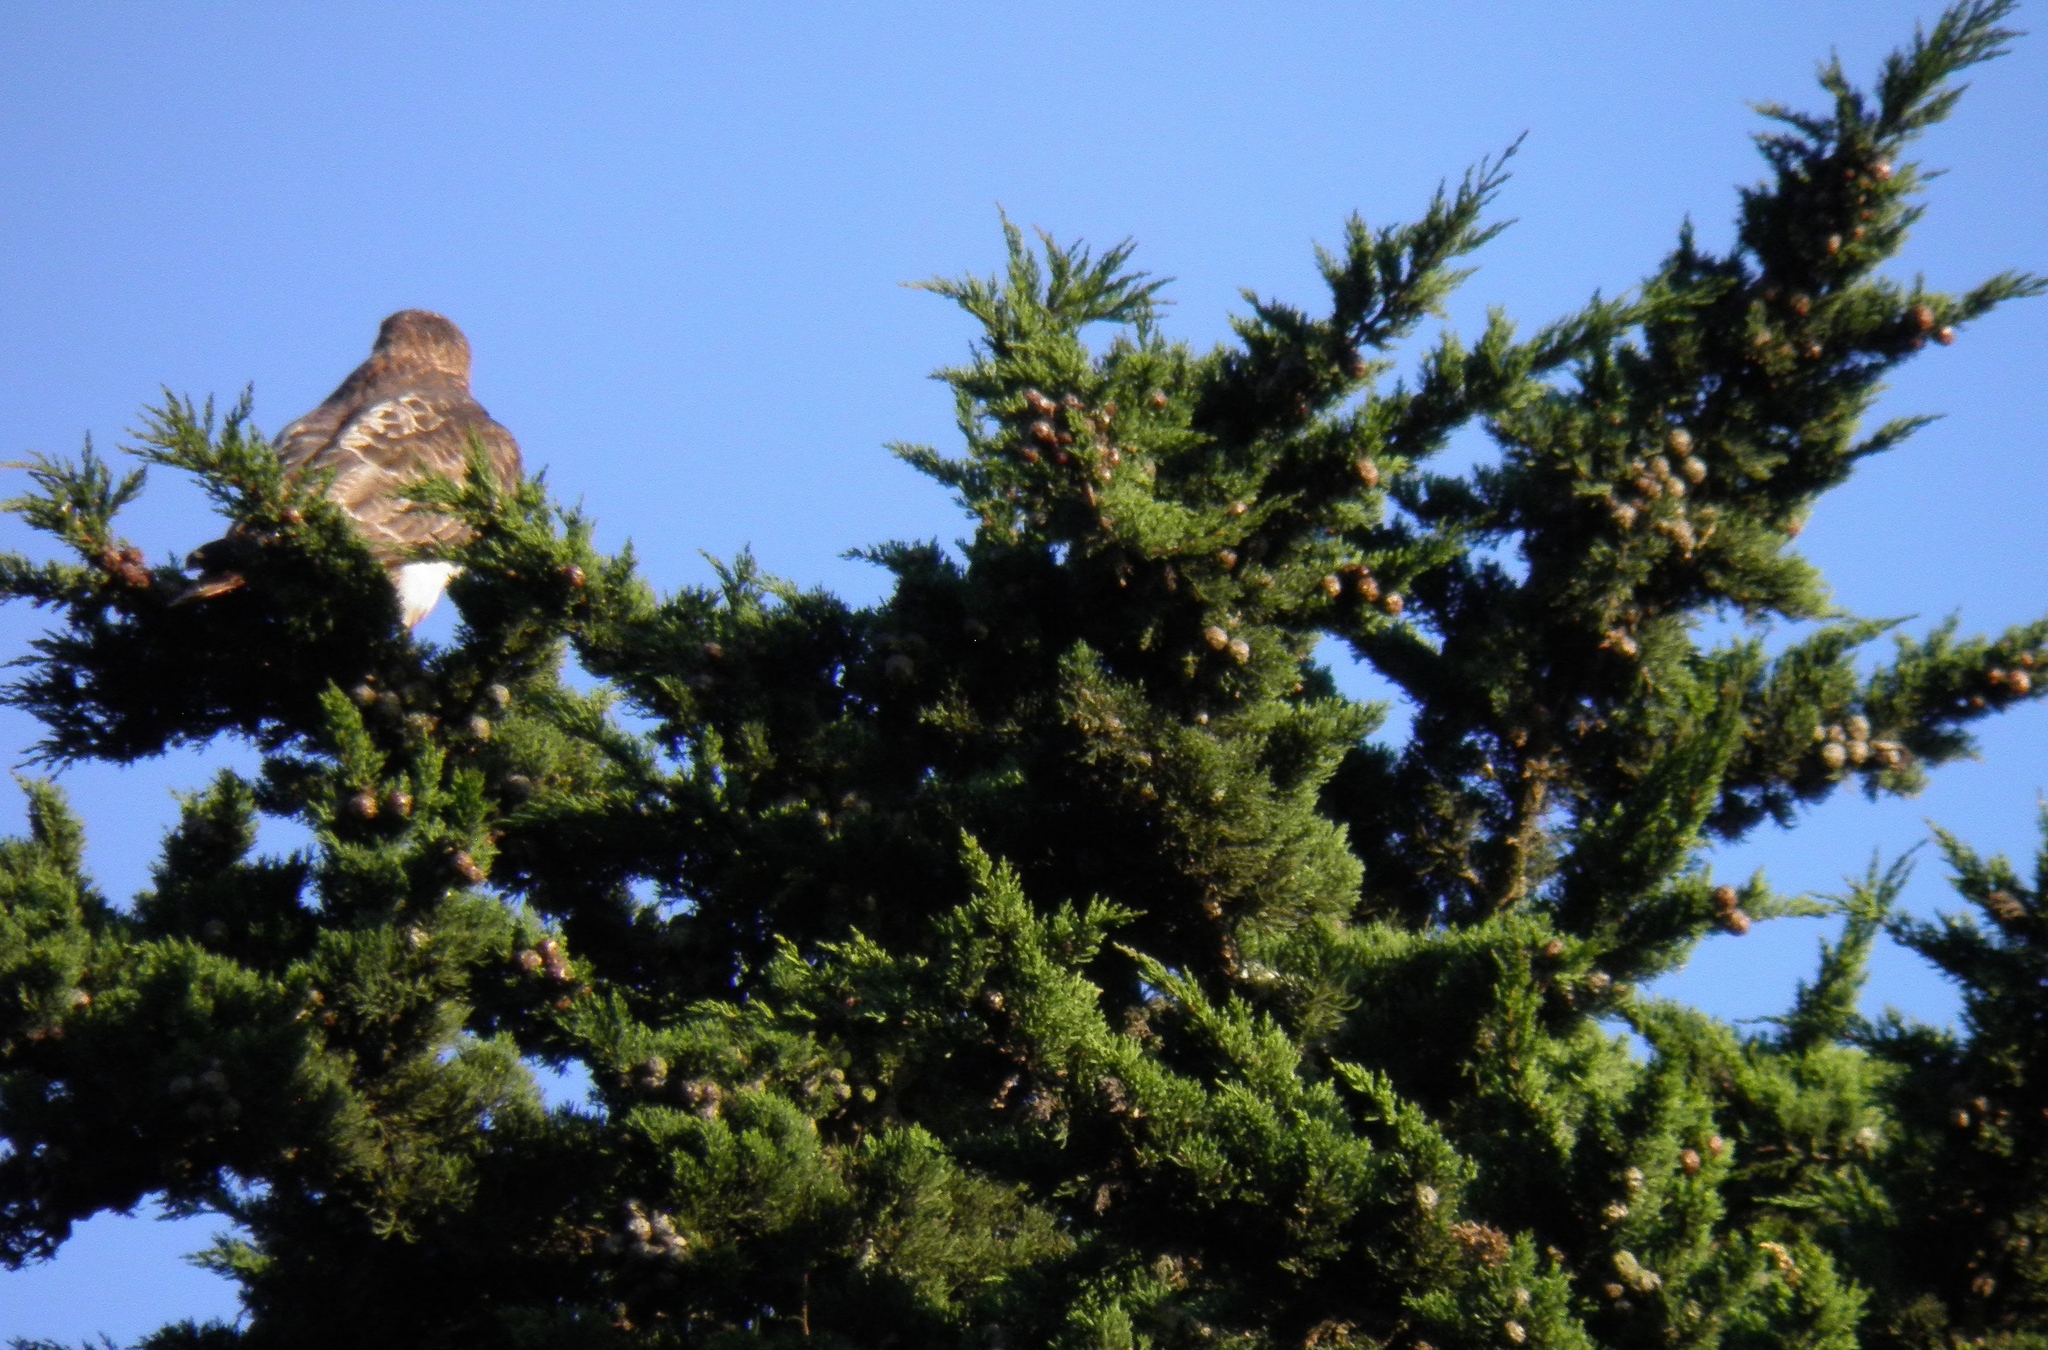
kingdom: Animalia
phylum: Chordata
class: Aves
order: Accipitriformes
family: Accipitridae
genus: Buteo
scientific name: Buteo jamaicensis
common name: Red-tailed hawk
